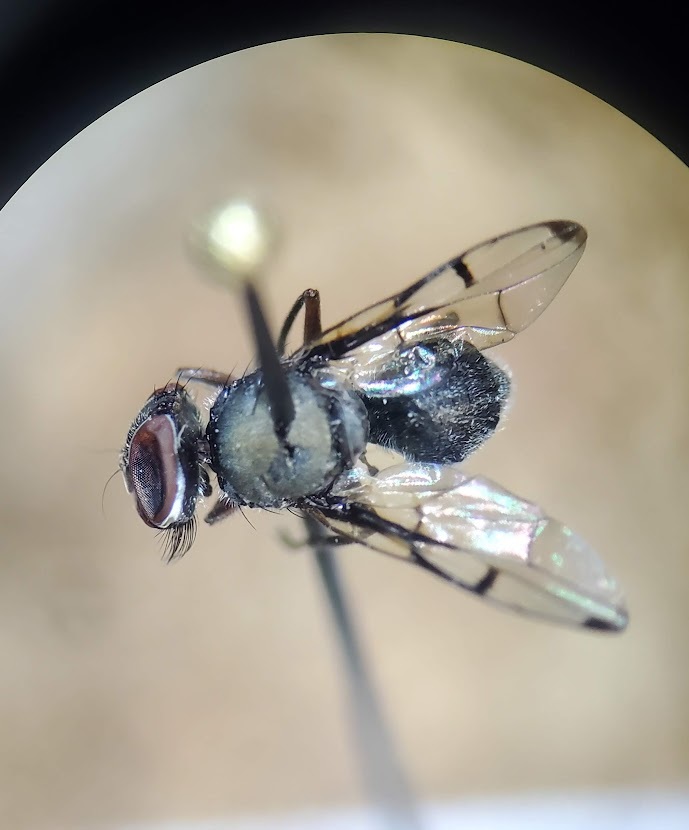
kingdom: Animalia
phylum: Arthropoda
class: Insecta
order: Diptera
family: Platystomatidae
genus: Pogonortalis
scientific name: Pogonortalis doclea
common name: Boatman fly
